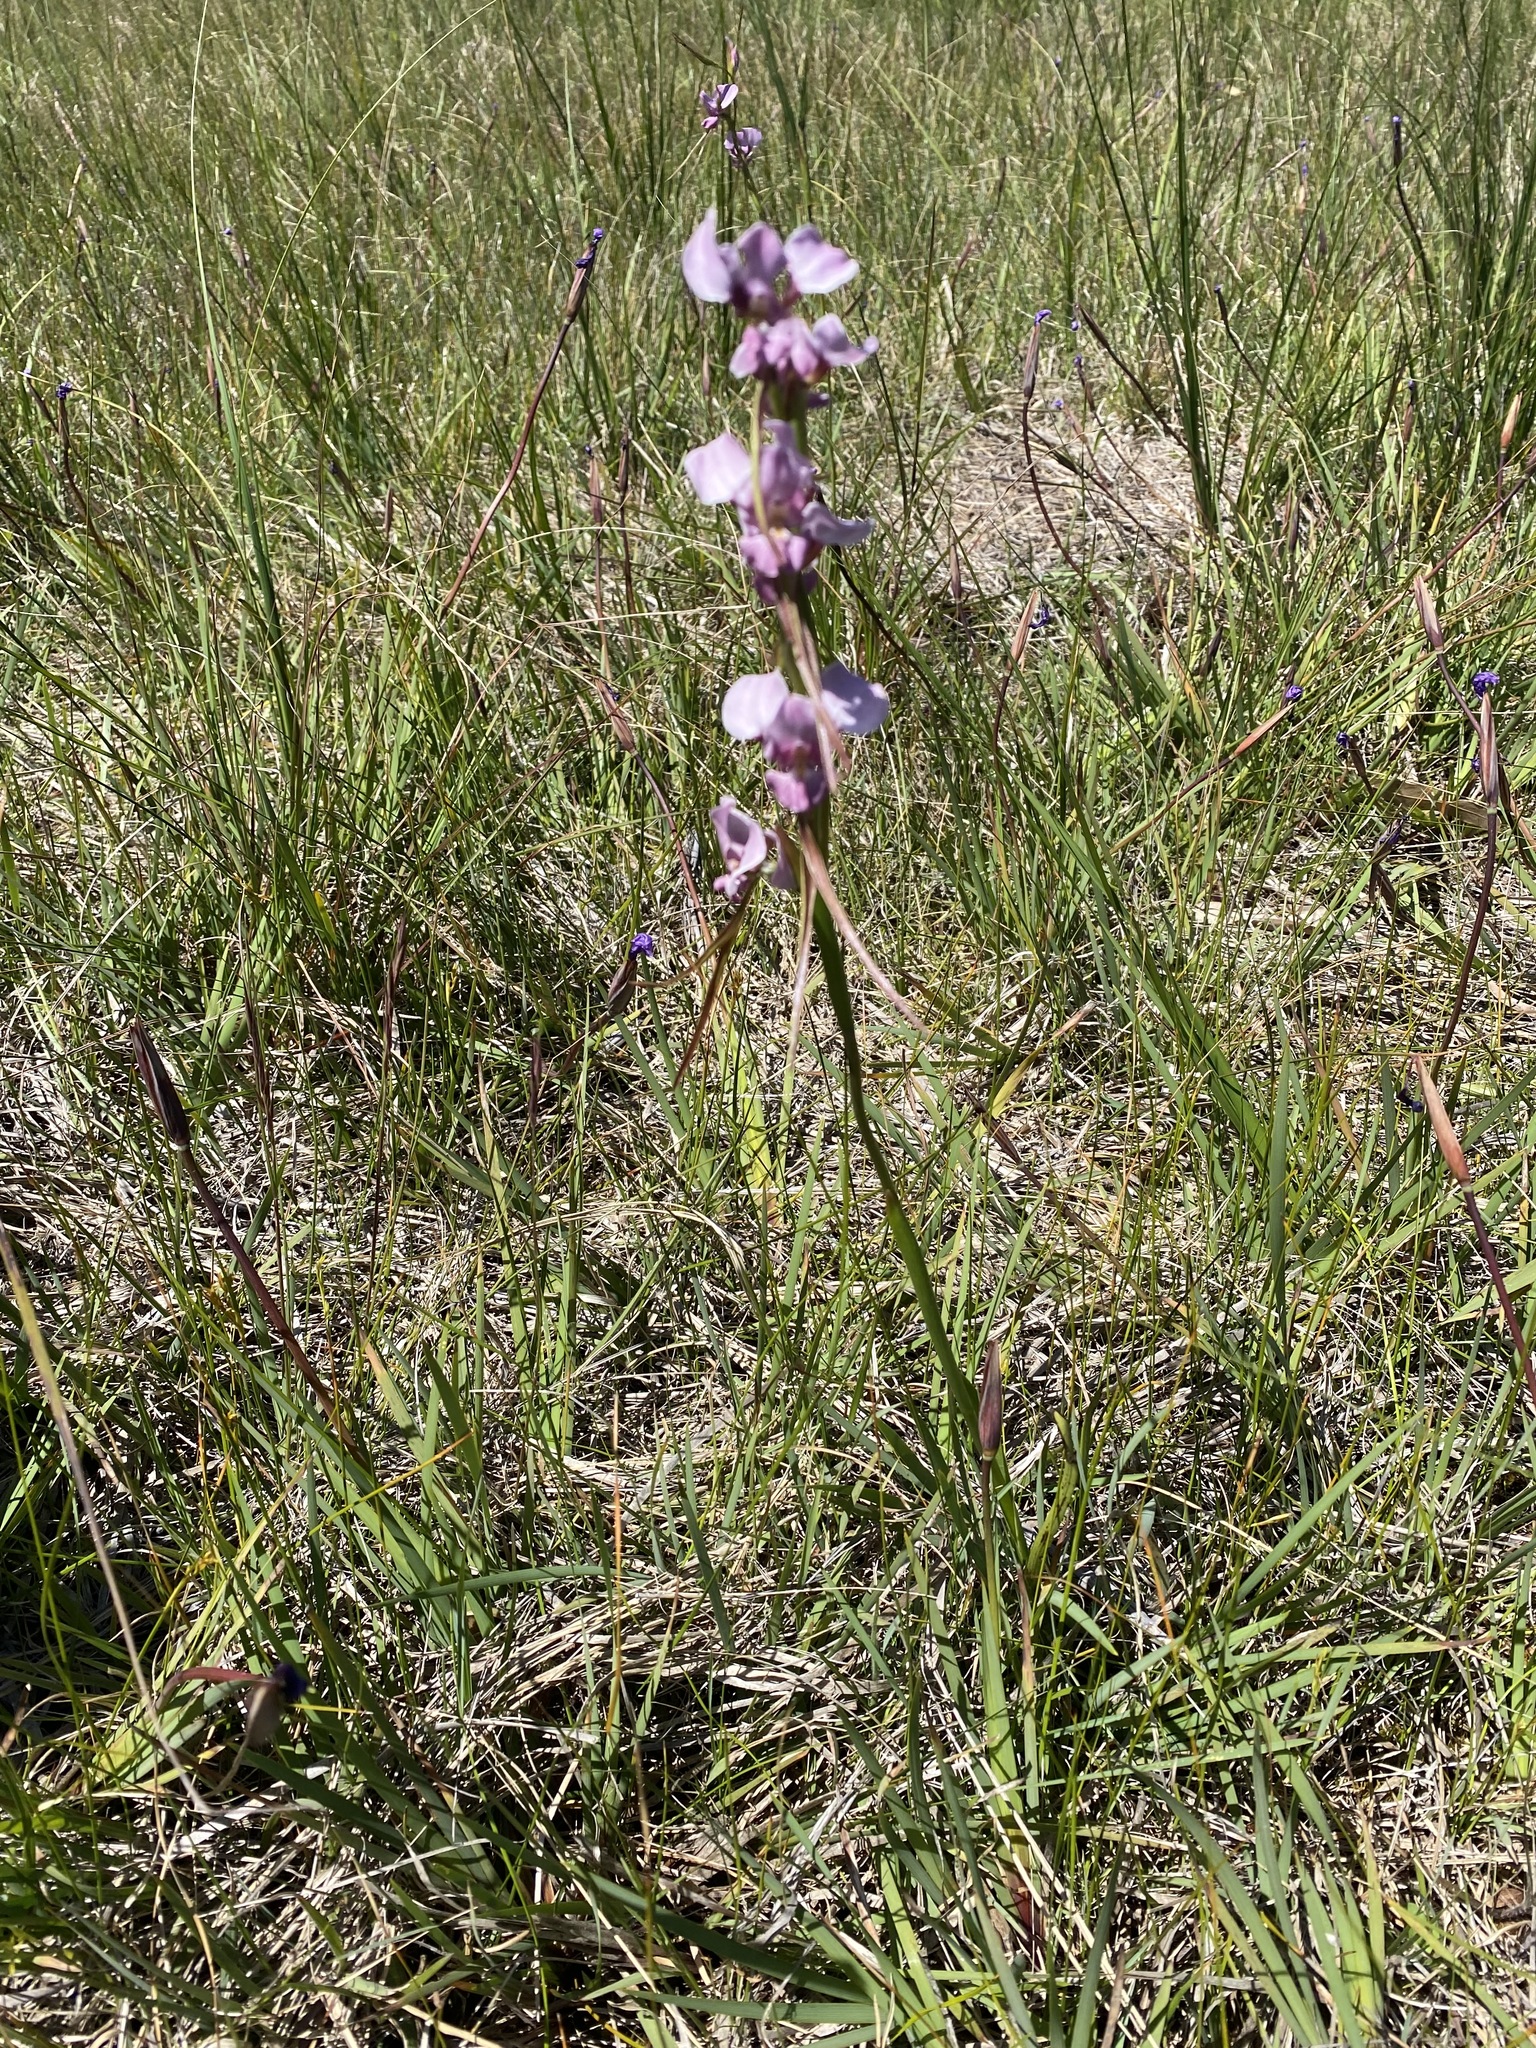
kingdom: Plantae
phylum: Tracheophyta
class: Liliopsida
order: Asparagales
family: Orchidaceae
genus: Diuris
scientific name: Diuris punctata
